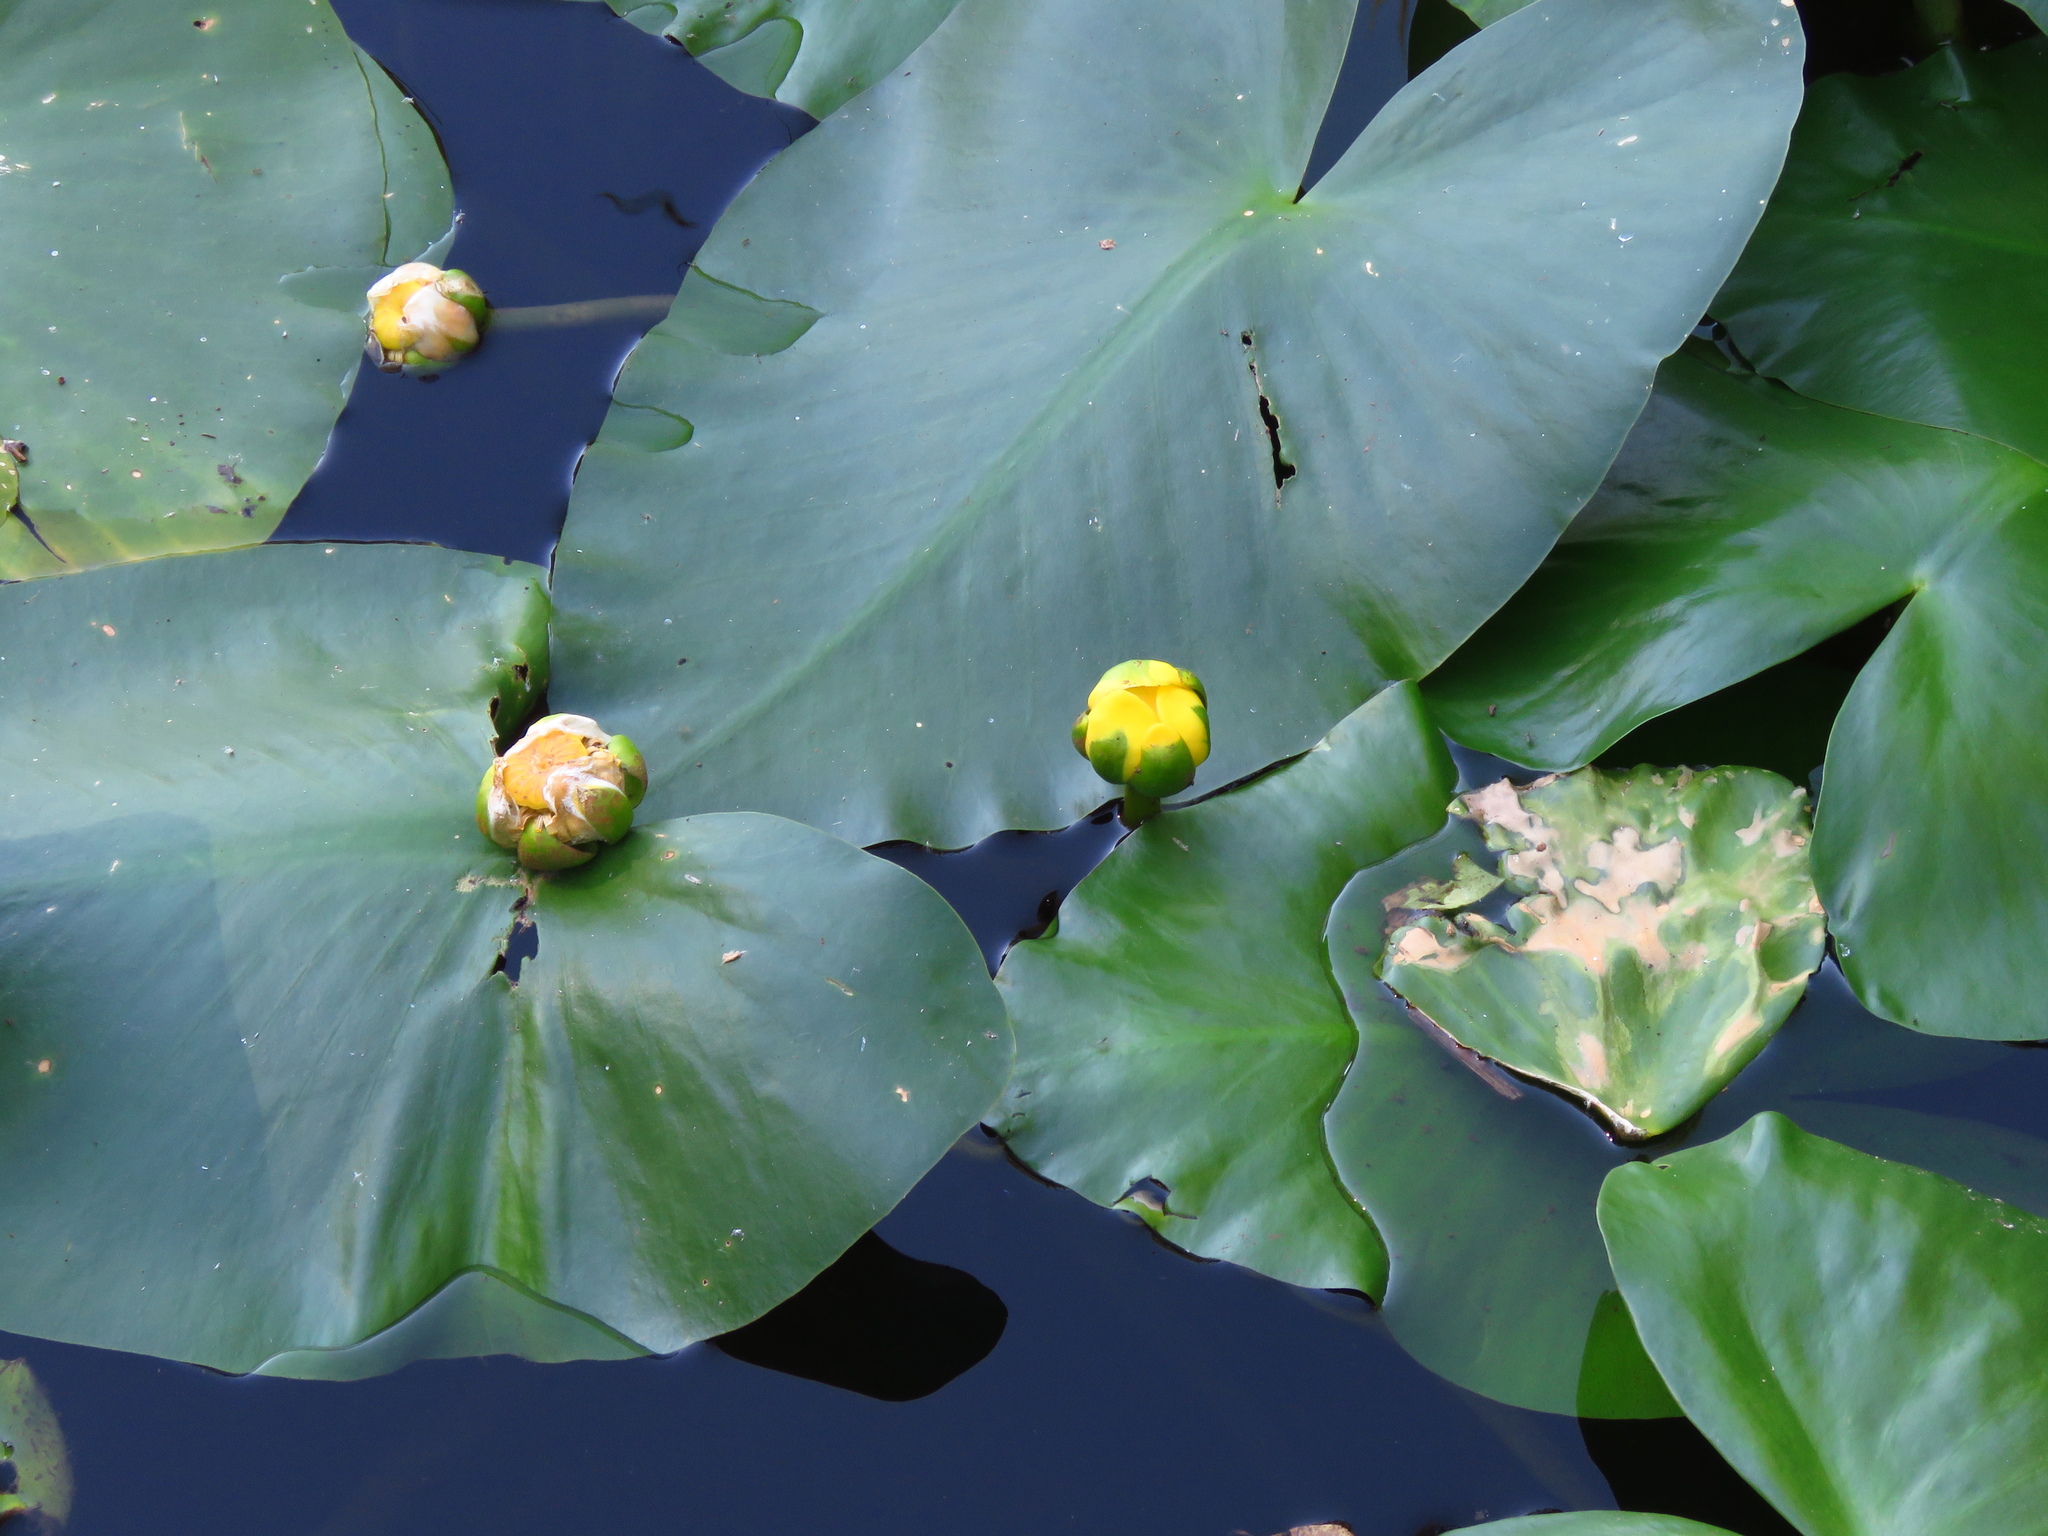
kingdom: Plantae
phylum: Tracheophyta
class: Magnoliopsida
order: Nymphaeales
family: Nymphaeaceae
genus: Nuphar
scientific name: Nuphar advena
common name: Spatter-dock
